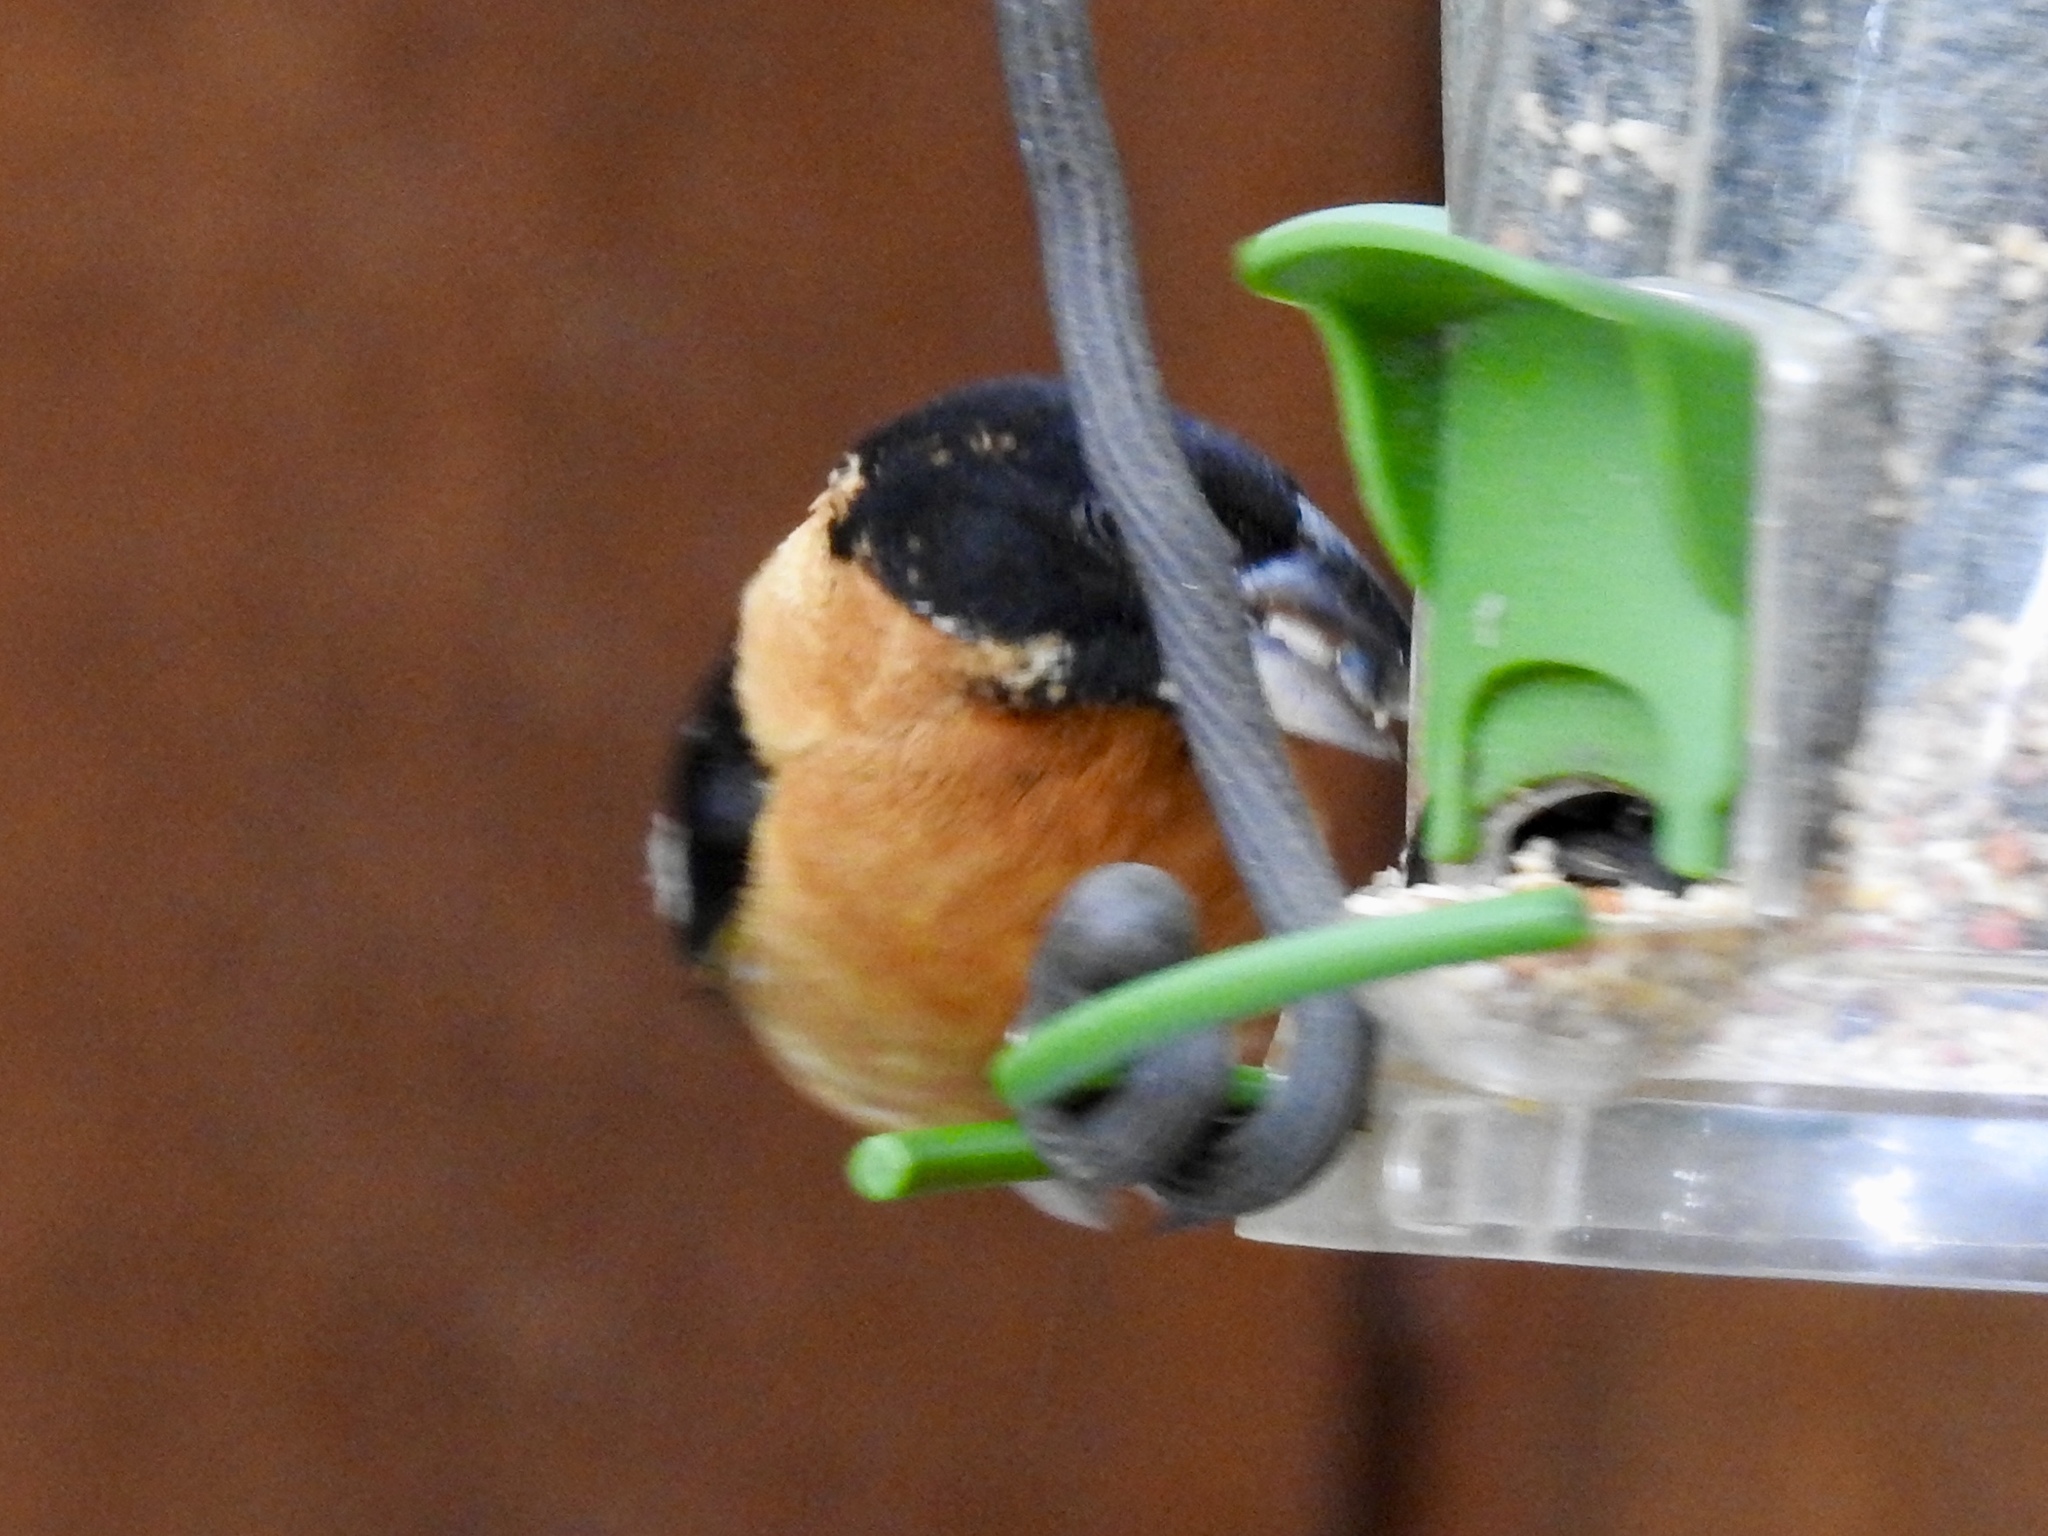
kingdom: Animalia
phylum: Chordata
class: Aves
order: Passeriformes
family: Cardinalidae
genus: Pheucticus
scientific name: Pheucticus melanocephalus
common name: Black-headed grosbeak
